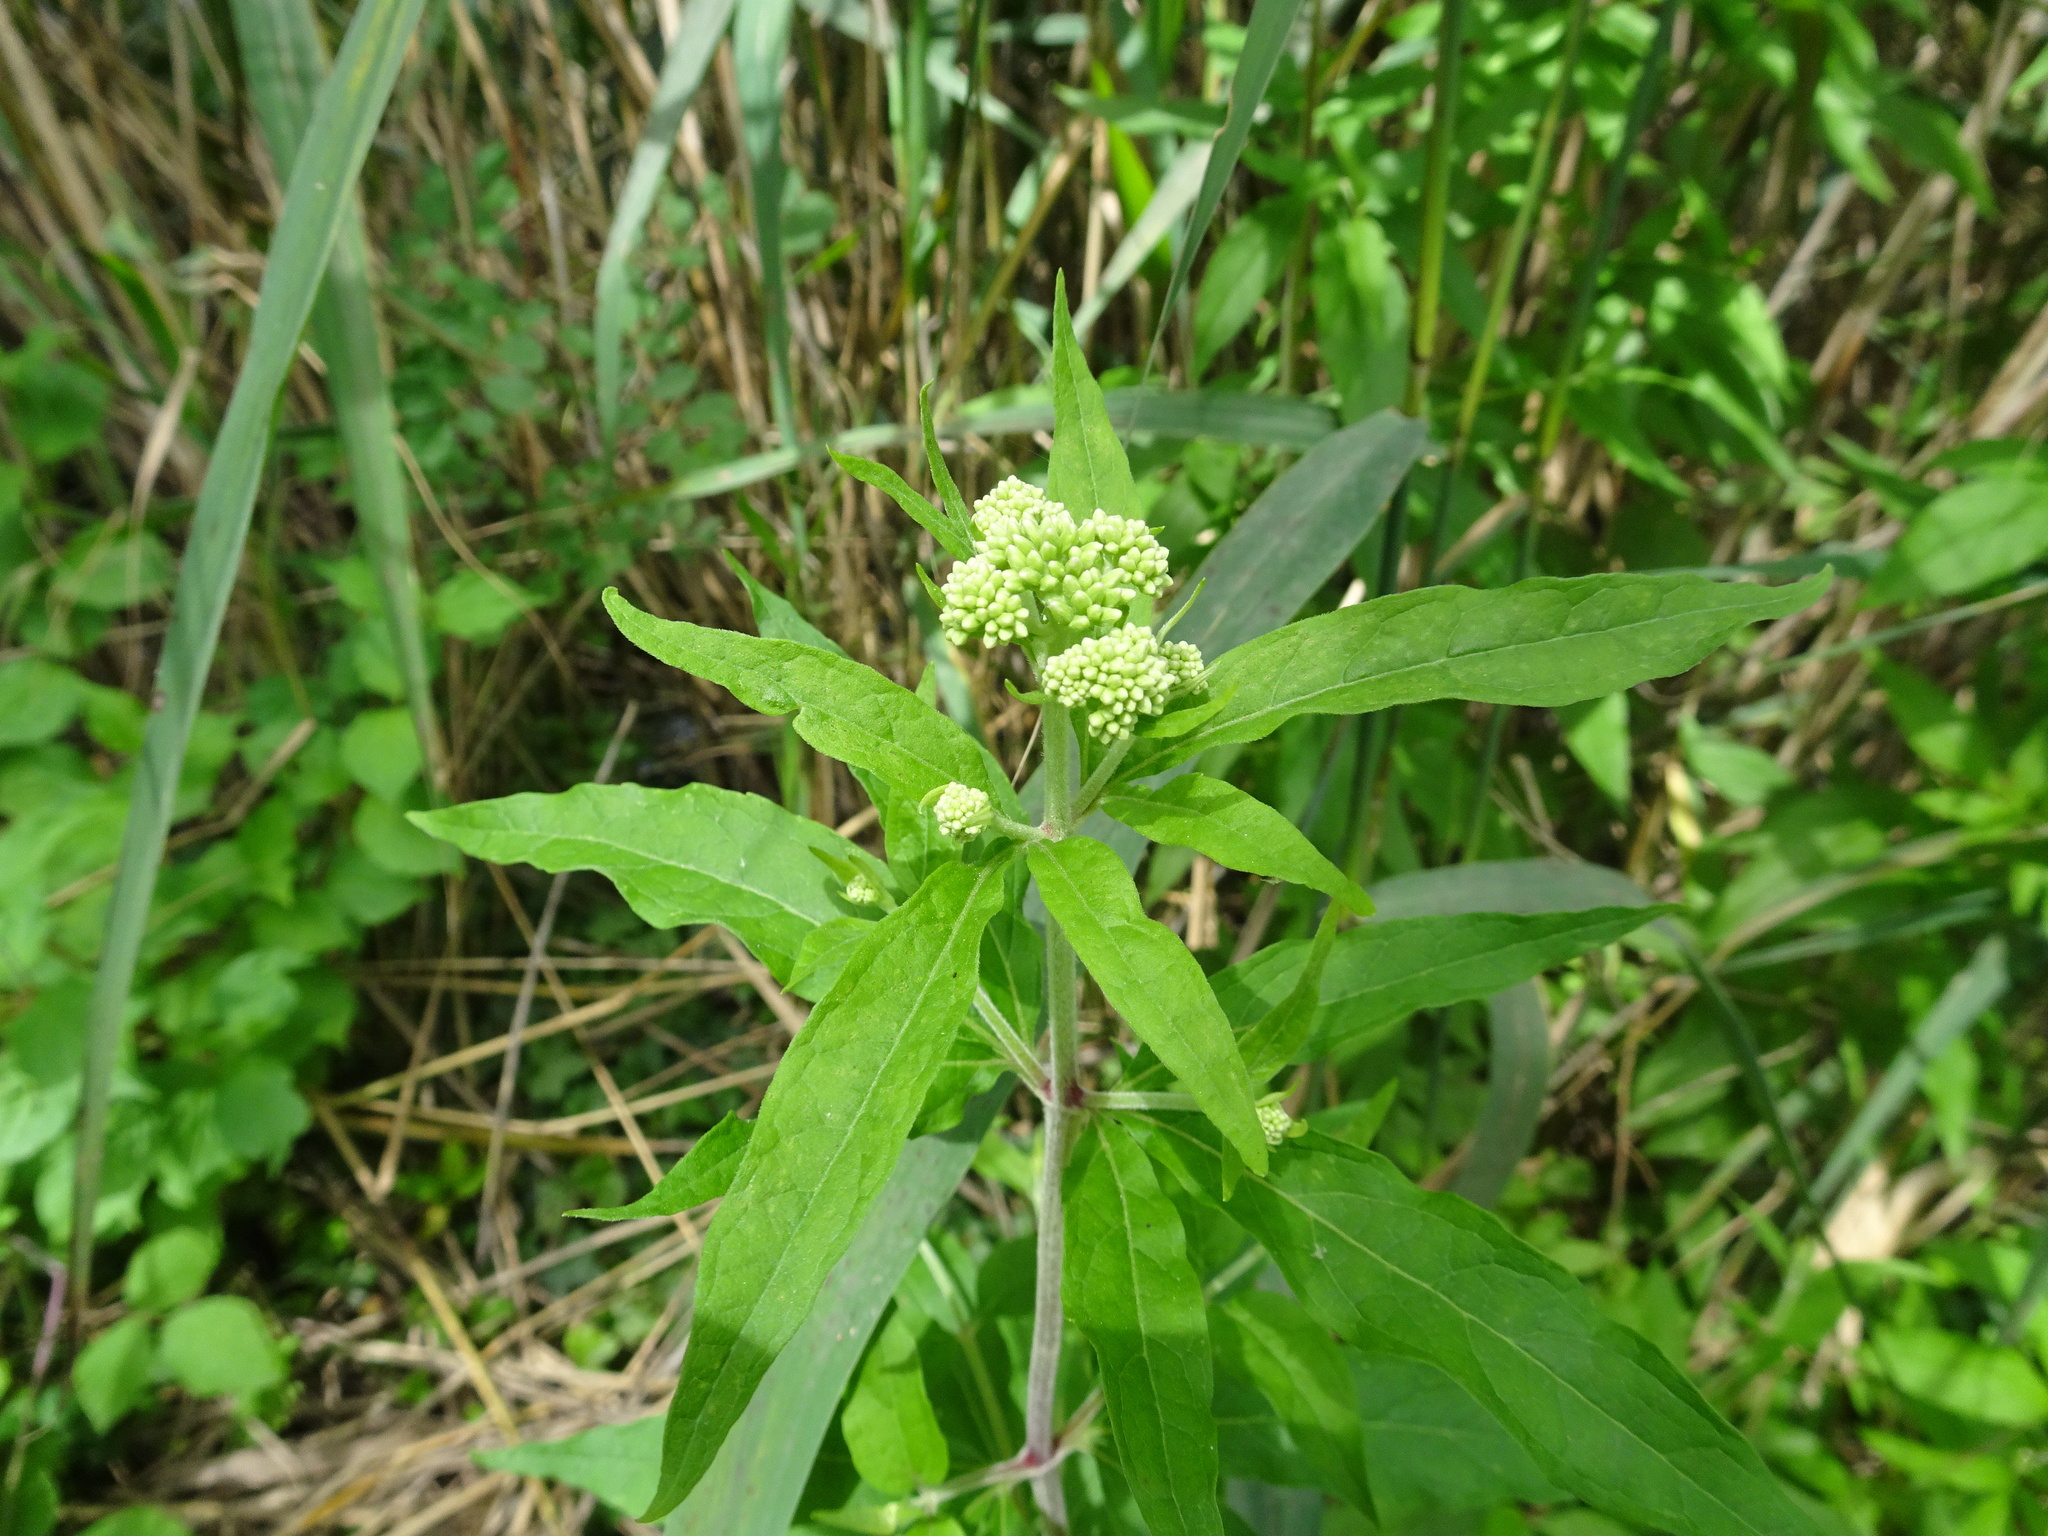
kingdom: Plantae
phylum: Tracheophyta
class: Magnoliopsida
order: Asterales
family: Asteraceae
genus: Eupatorium
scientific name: Eupatorium cannabinum
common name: Hemp-agrimony
